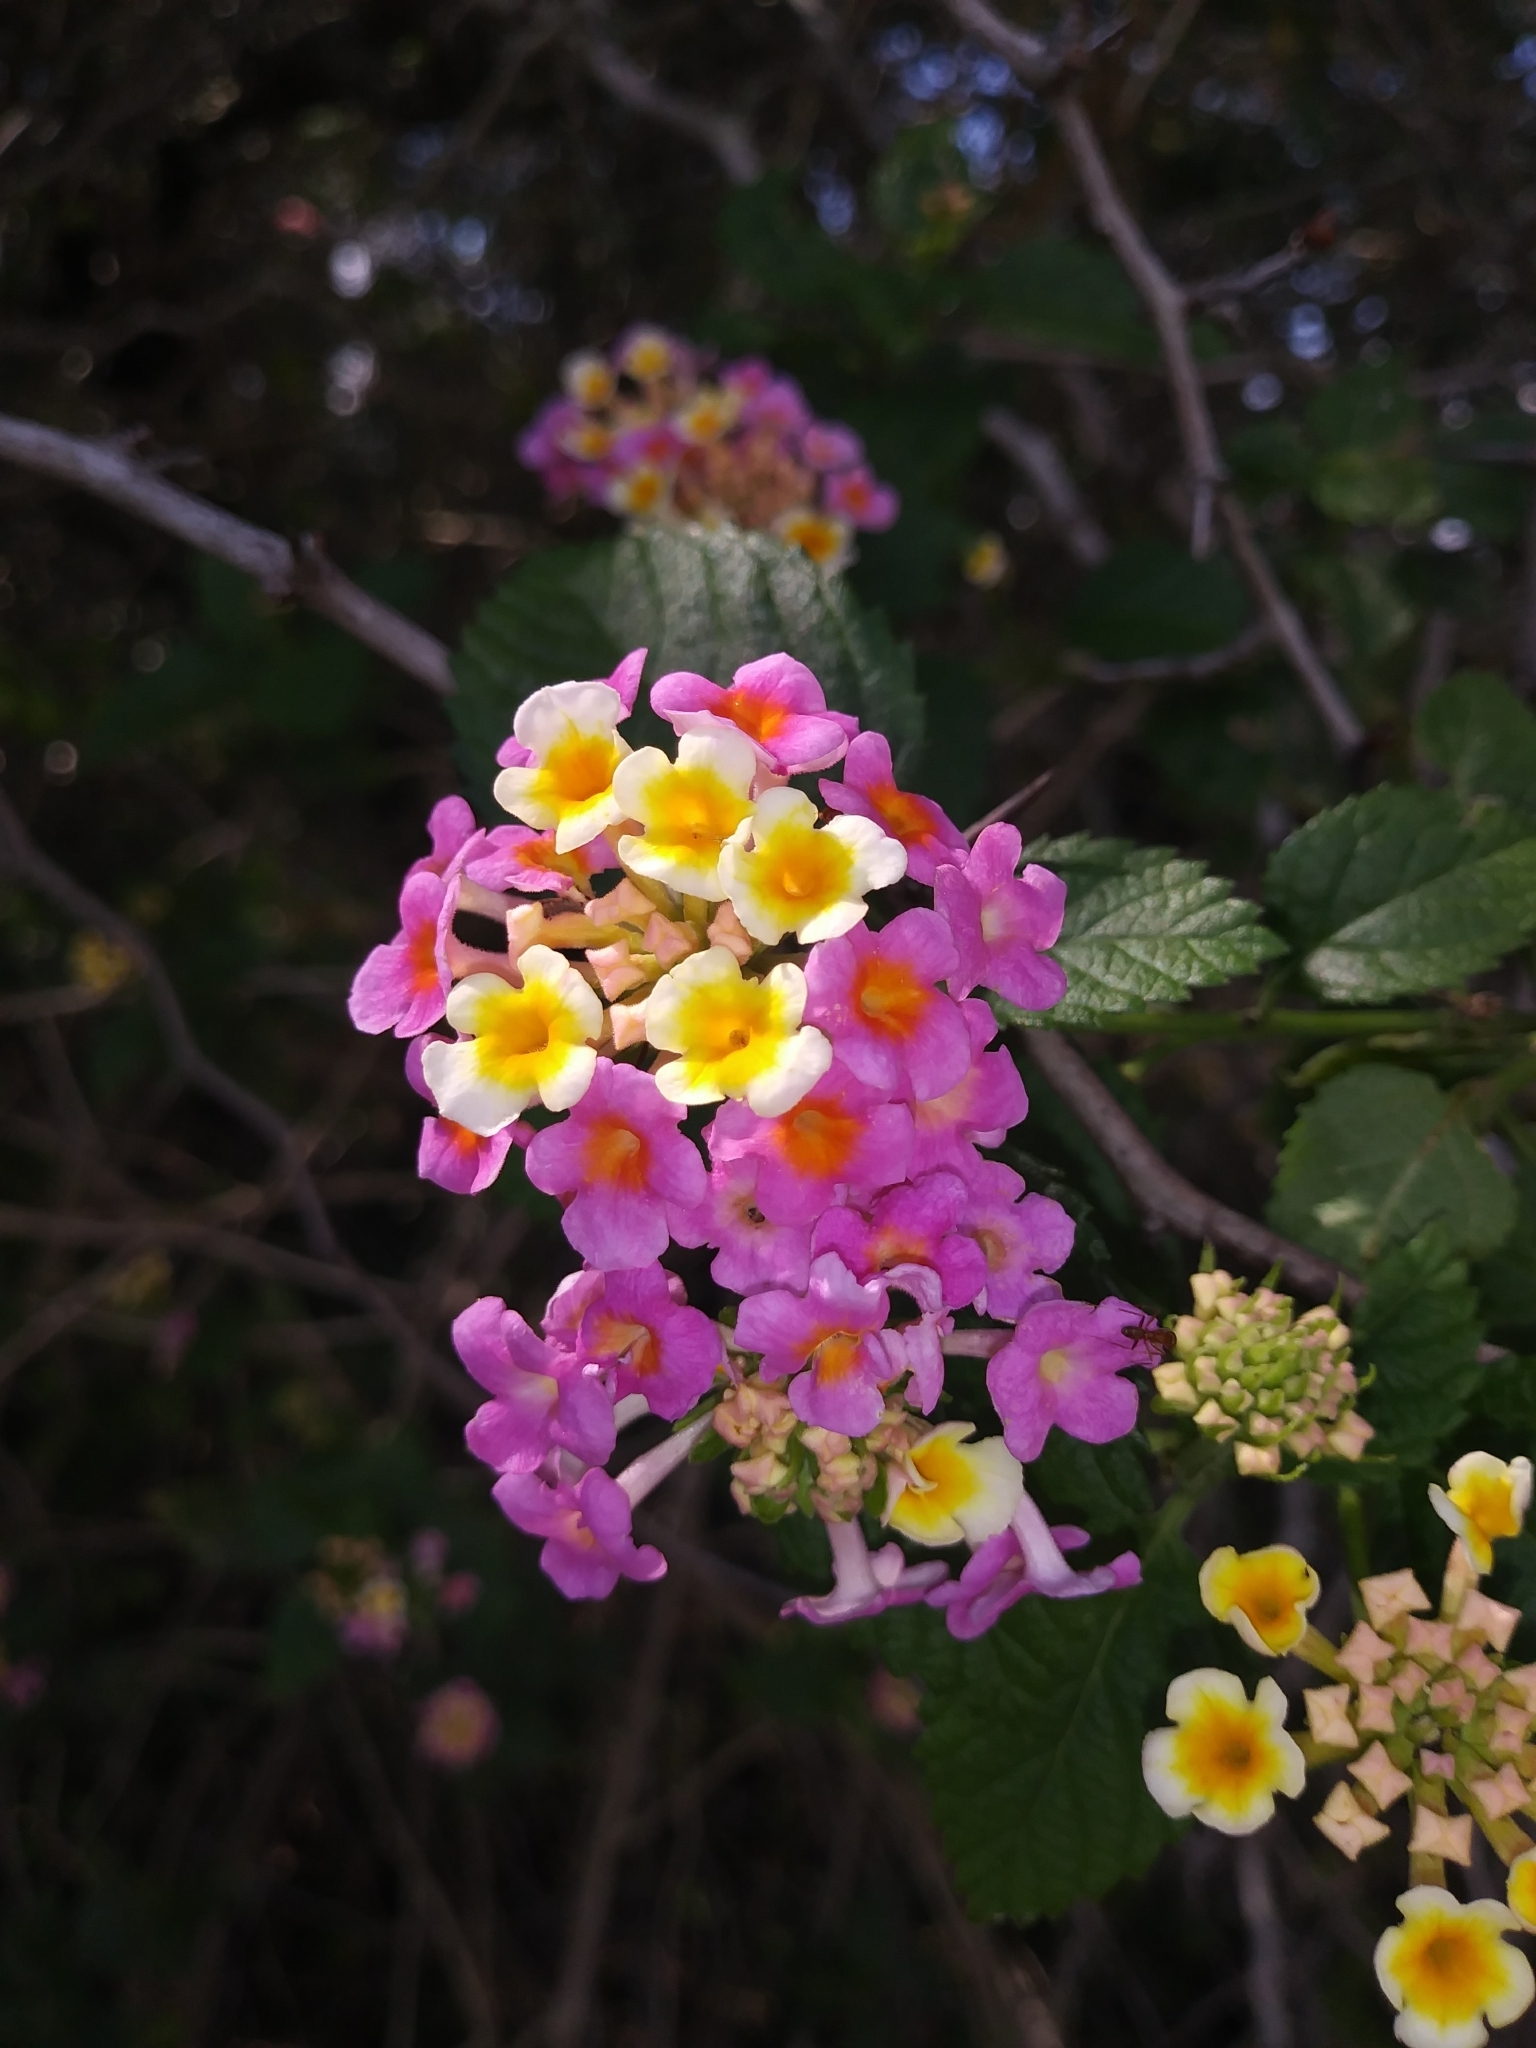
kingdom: Plantae
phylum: Tracheophyta
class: Magnoliopsida
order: Lamiales
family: Verbenaceae
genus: Lantana
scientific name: Lantana camara
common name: Lantana
